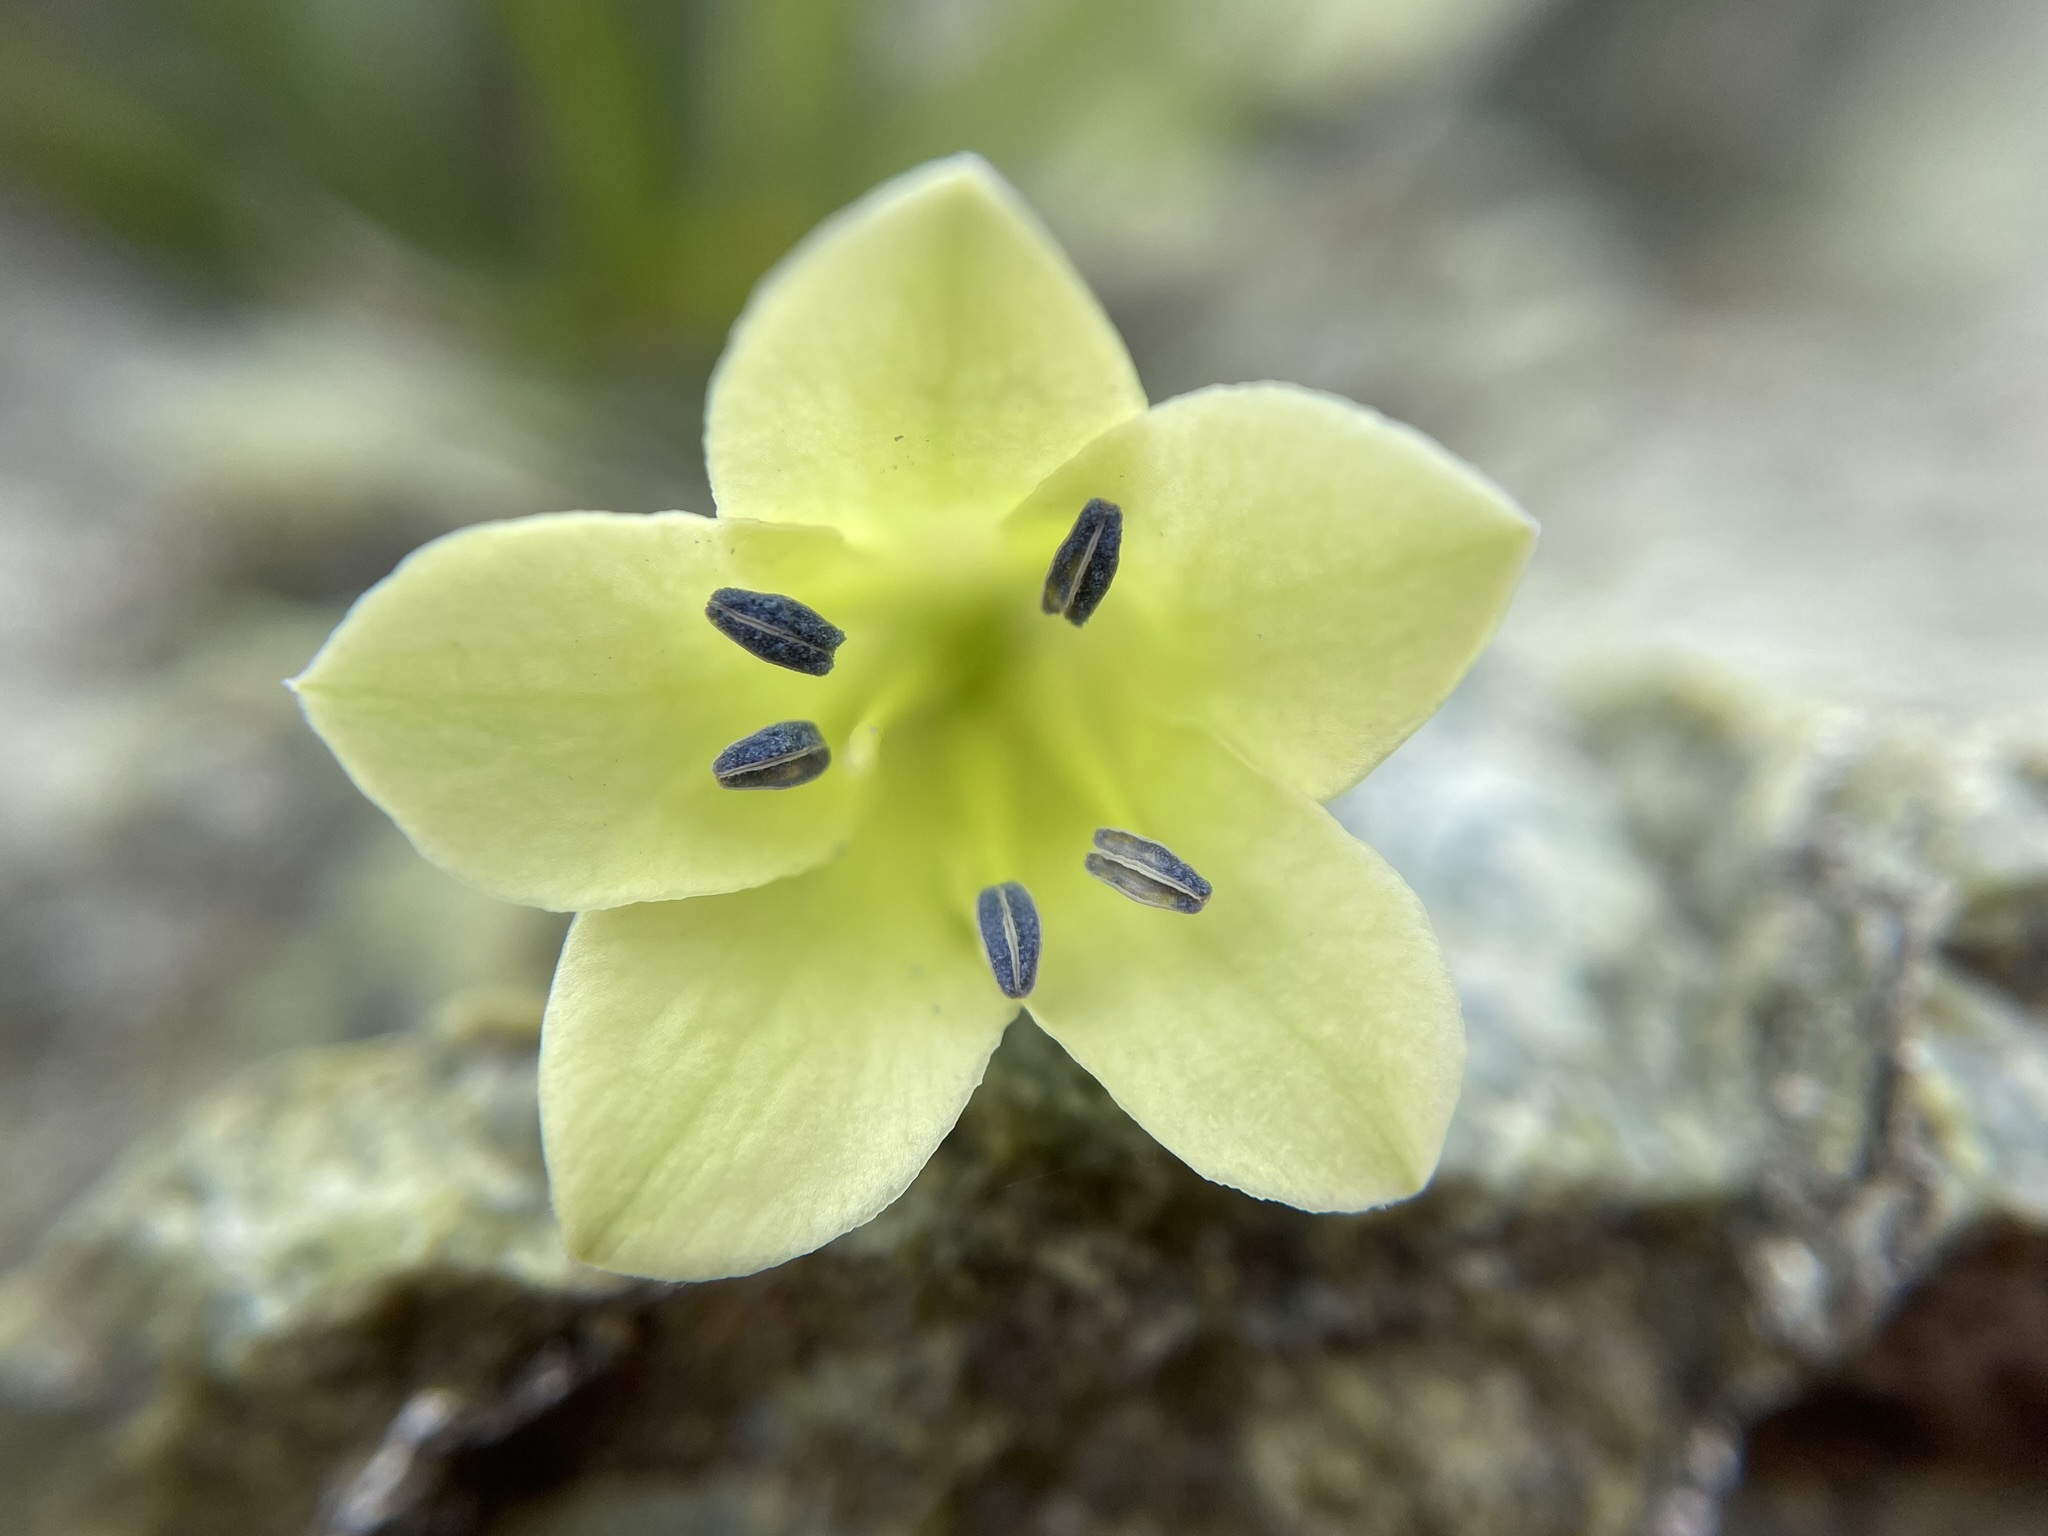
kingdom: Plantae
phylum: Tracheophyta
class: Magnoliopsida
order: Apiales
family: Pittosporaceae
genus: Billardiera
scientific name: Billardiera macrantha
